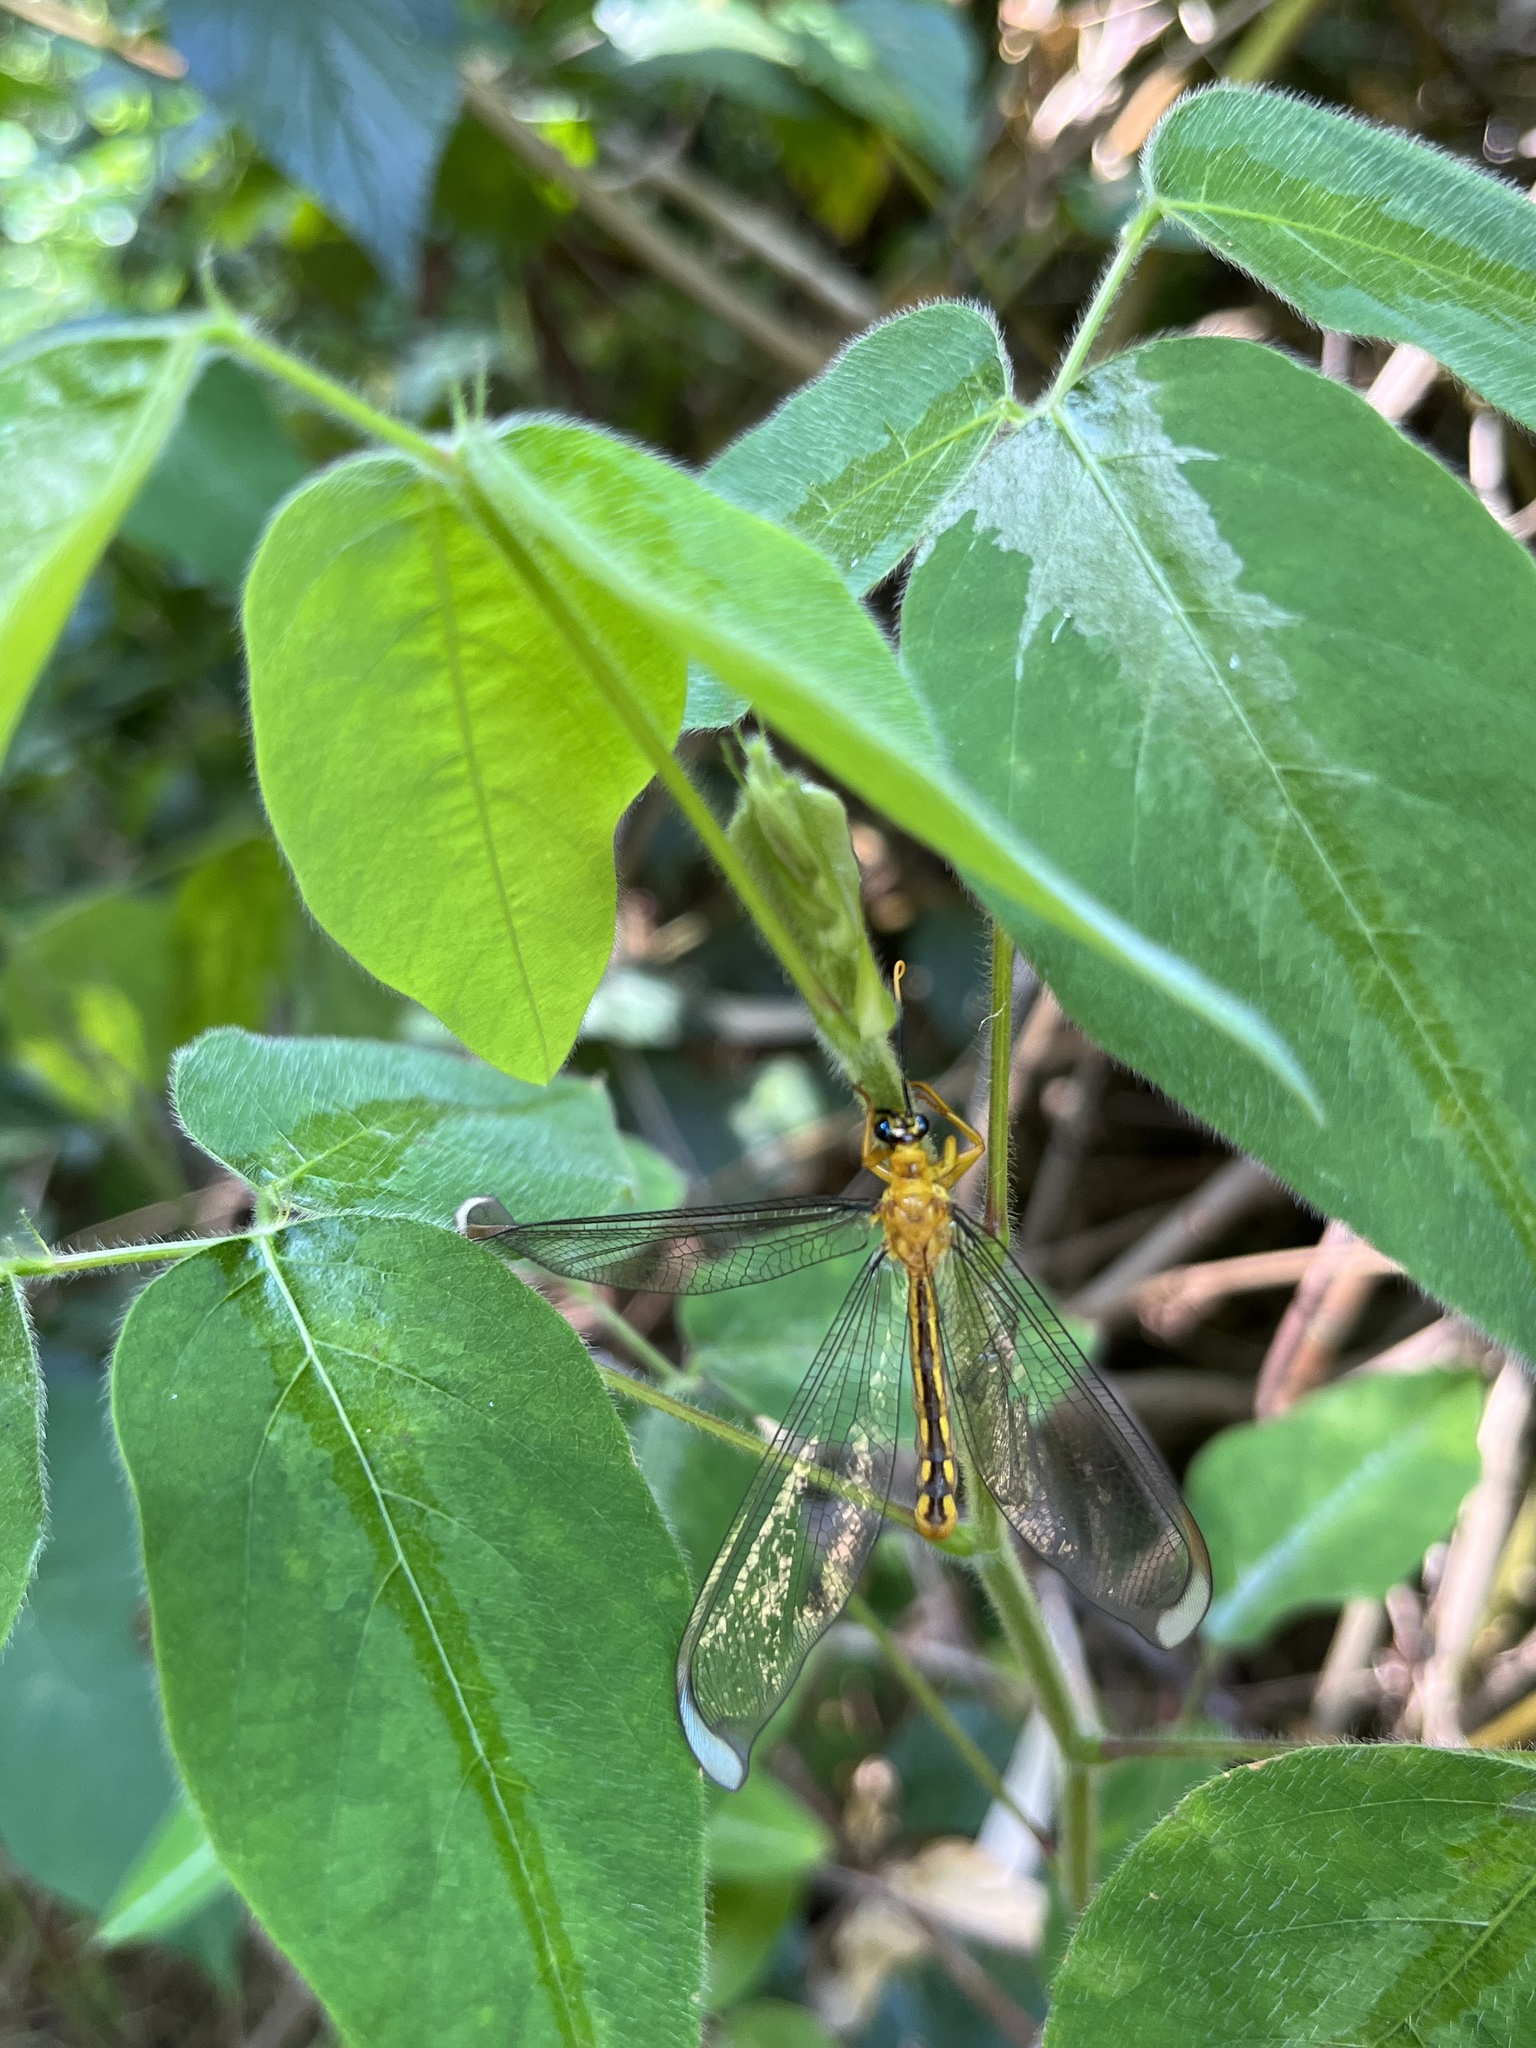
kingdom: Animalia
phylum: Arthropoda
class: Insecta
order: Neuroptera
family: Nymphidae
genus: Nymphes
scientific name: Nymphes myrmeleonoides
